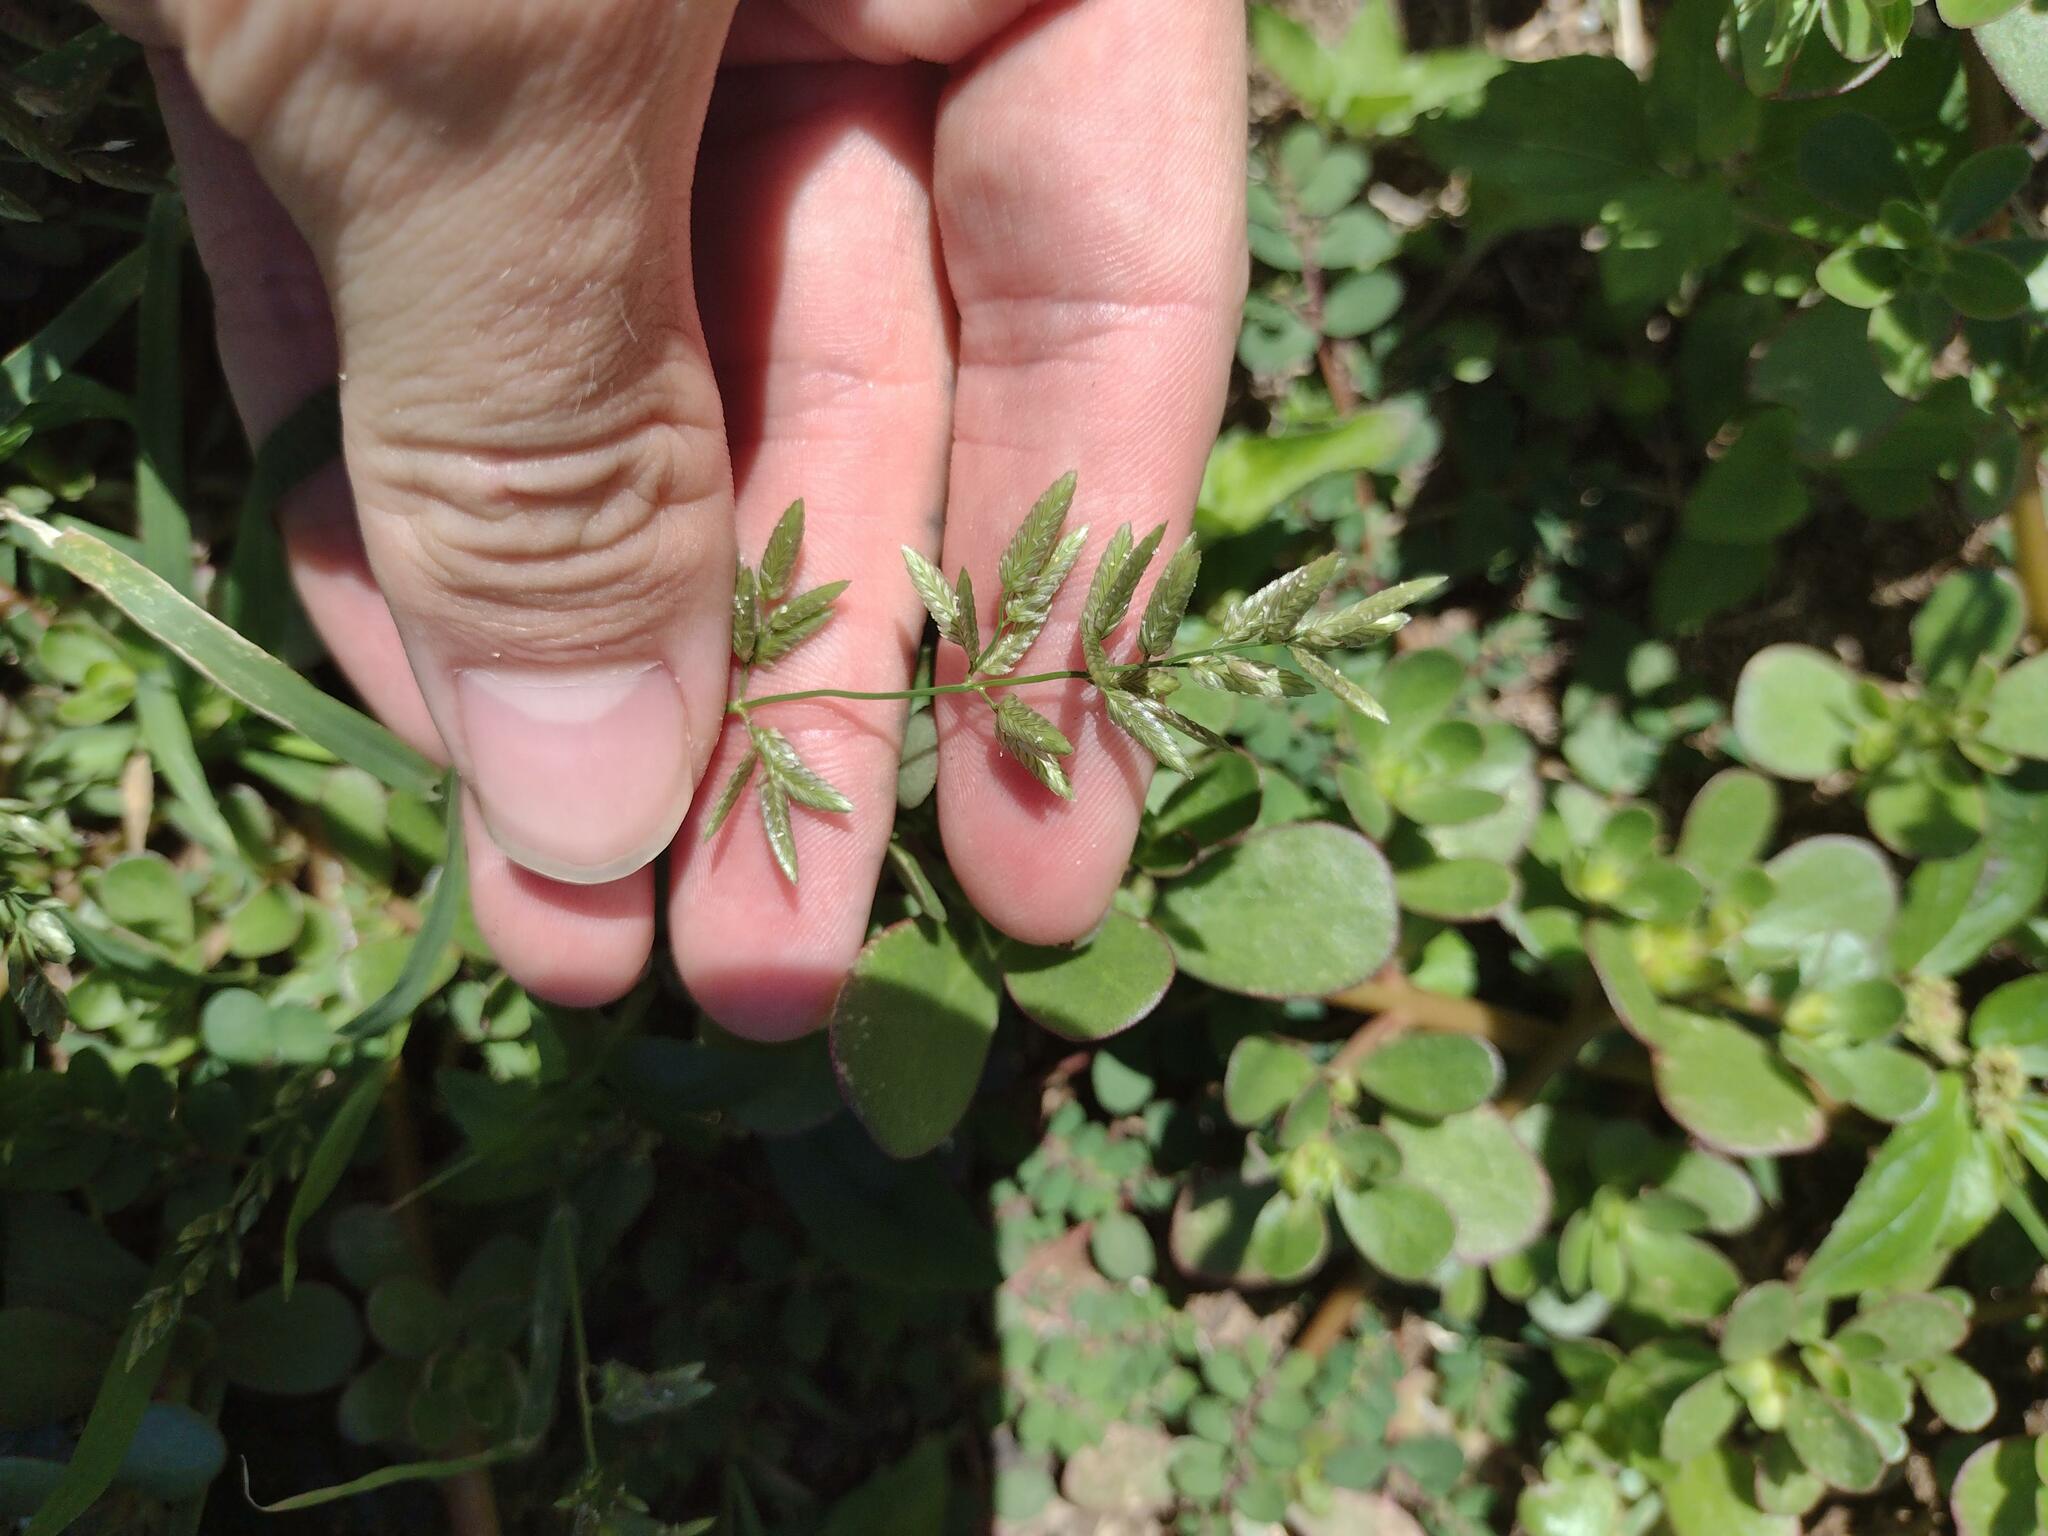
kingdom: Plantae
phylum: Tracheophyta
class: Liliopsida
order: Poales
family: Poaceae
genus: Eragrostis
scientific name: Eragrostis cilianensis
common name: Stinkgrass
